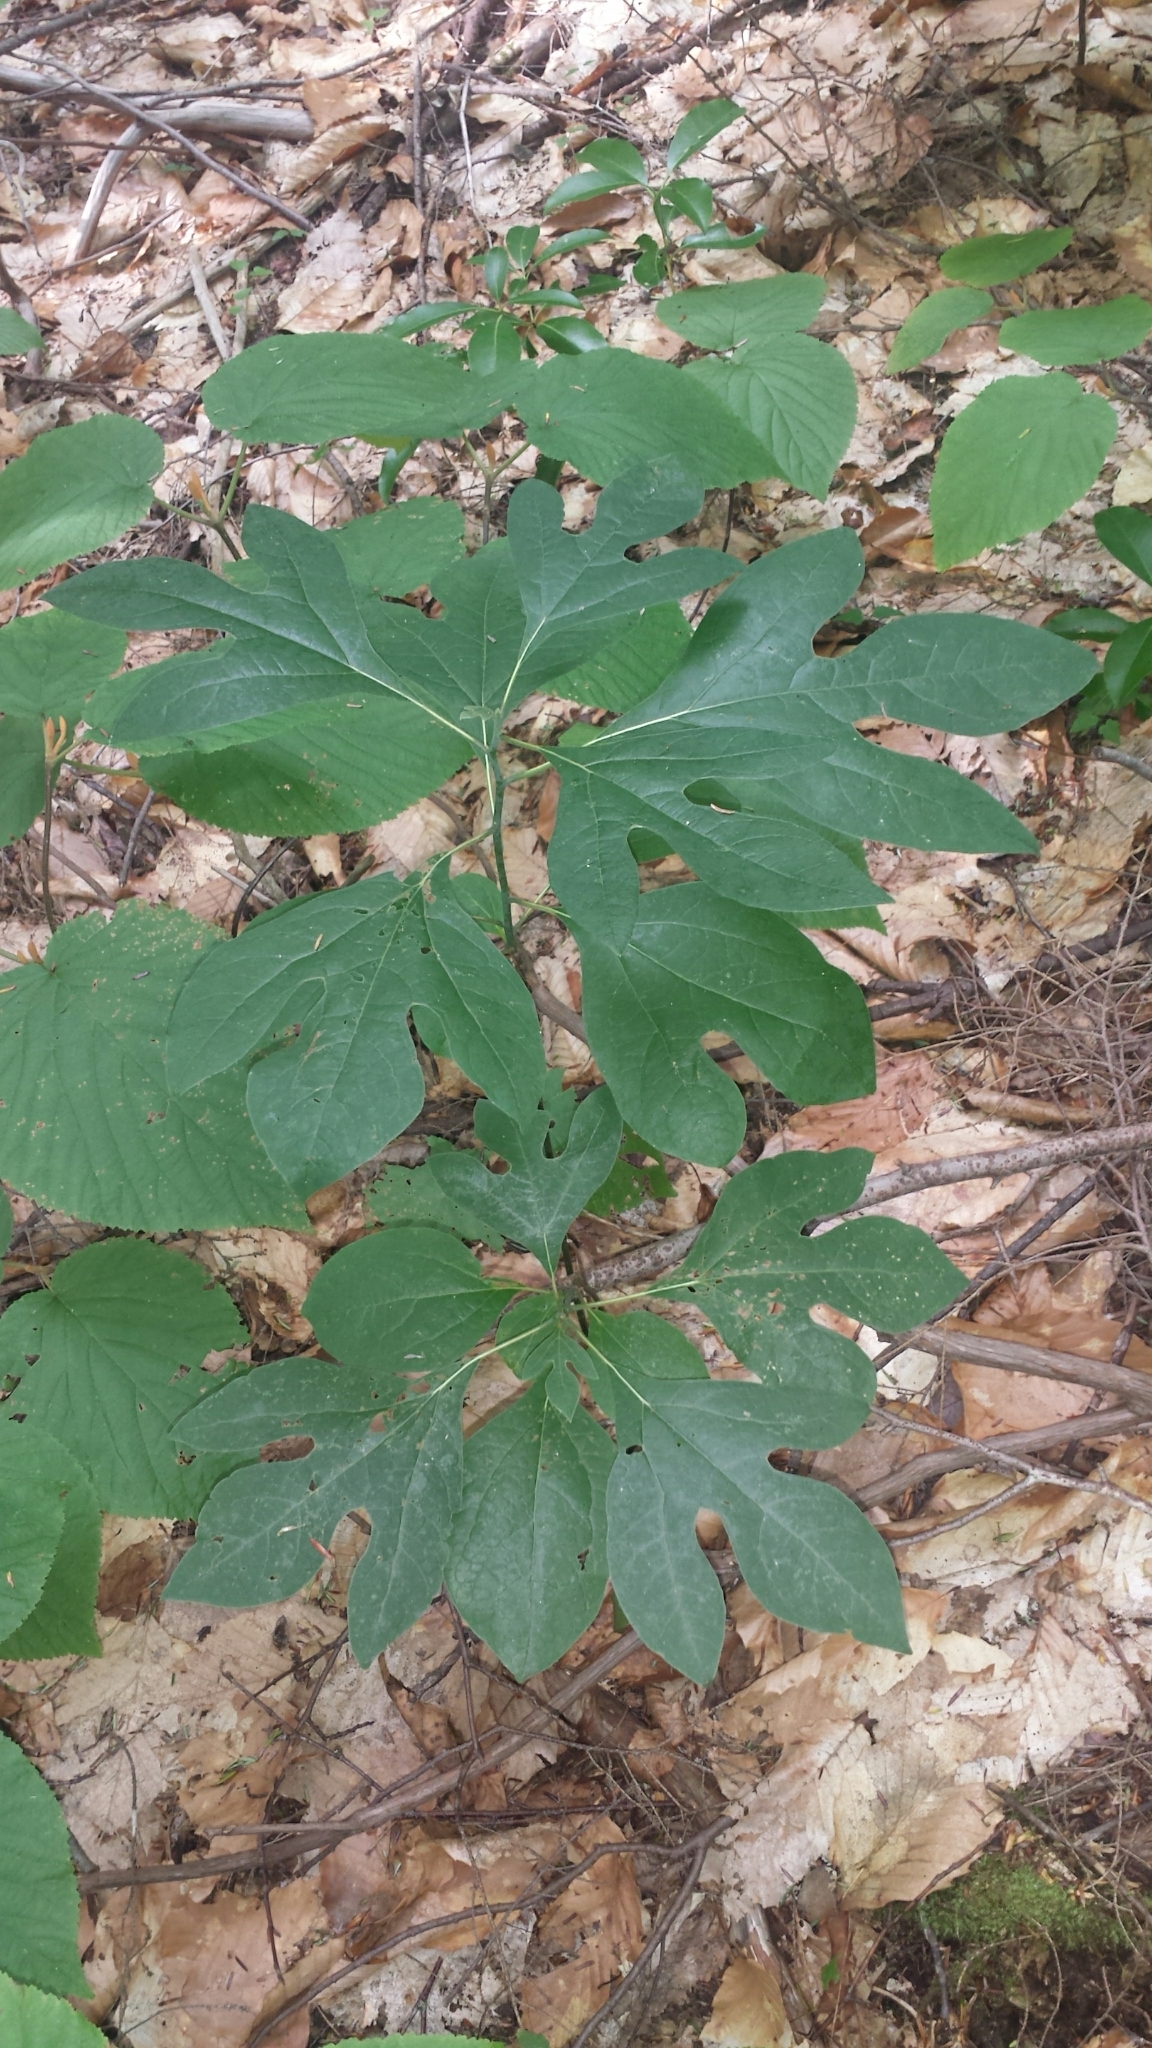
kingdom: Plantae
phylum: Tracheophyta
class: Magnoliopsida
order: Laurales
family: Lauraceae
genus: Sassafras
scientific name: Sassafras albidum
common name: Sassafras
